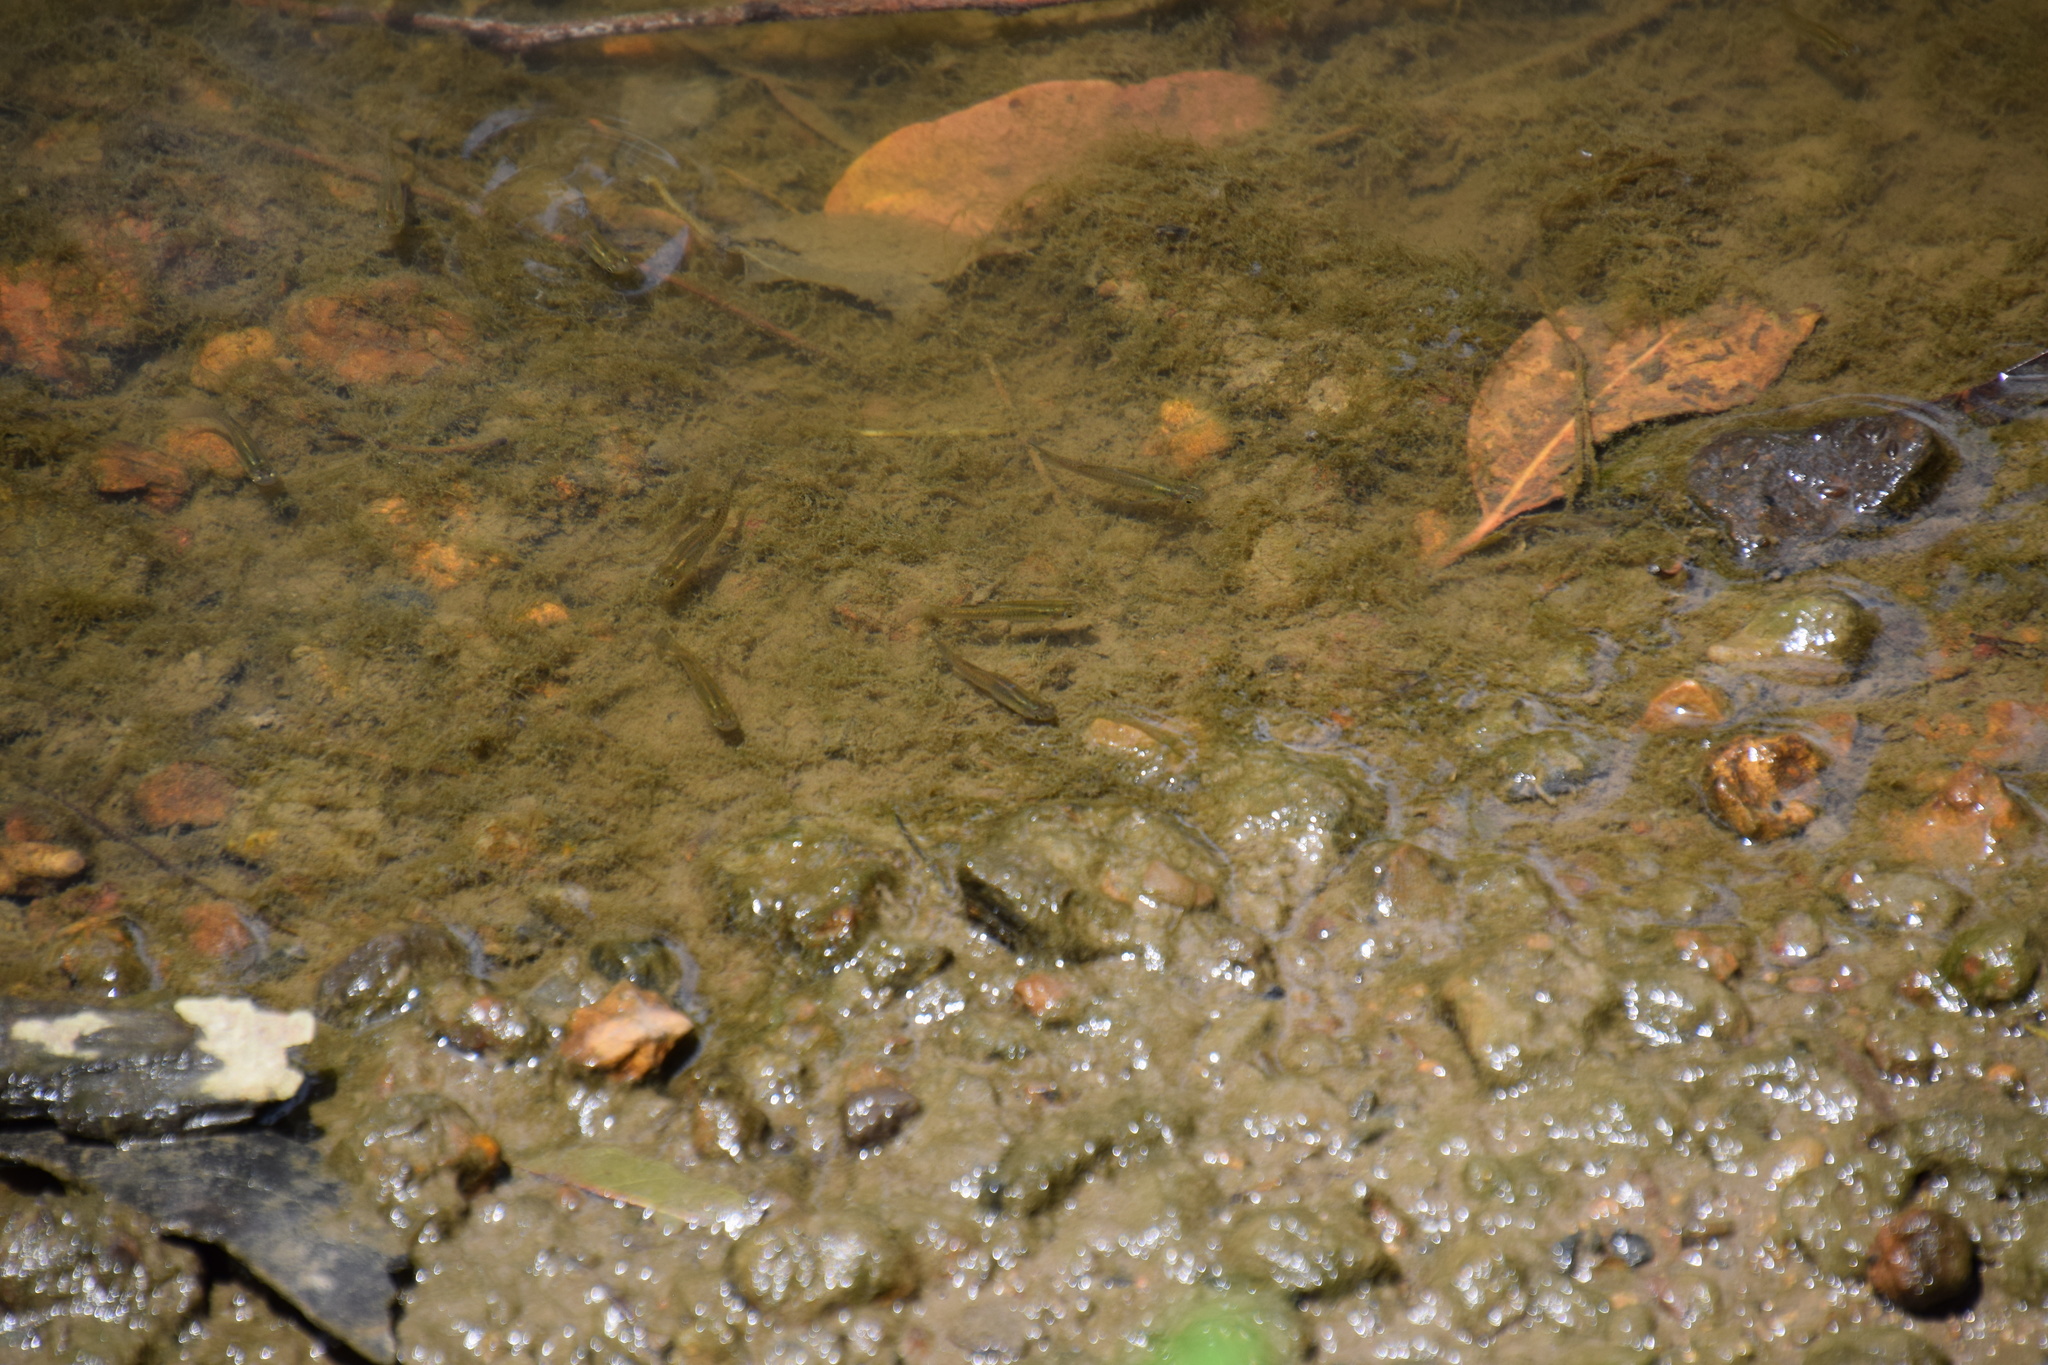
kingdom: Animalia
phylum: Chordata
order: Cyprinodontiformes
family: Poeciliidae
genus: Gambusia
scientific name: Gambusia holbrooki
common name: Eastern mosquitofish
